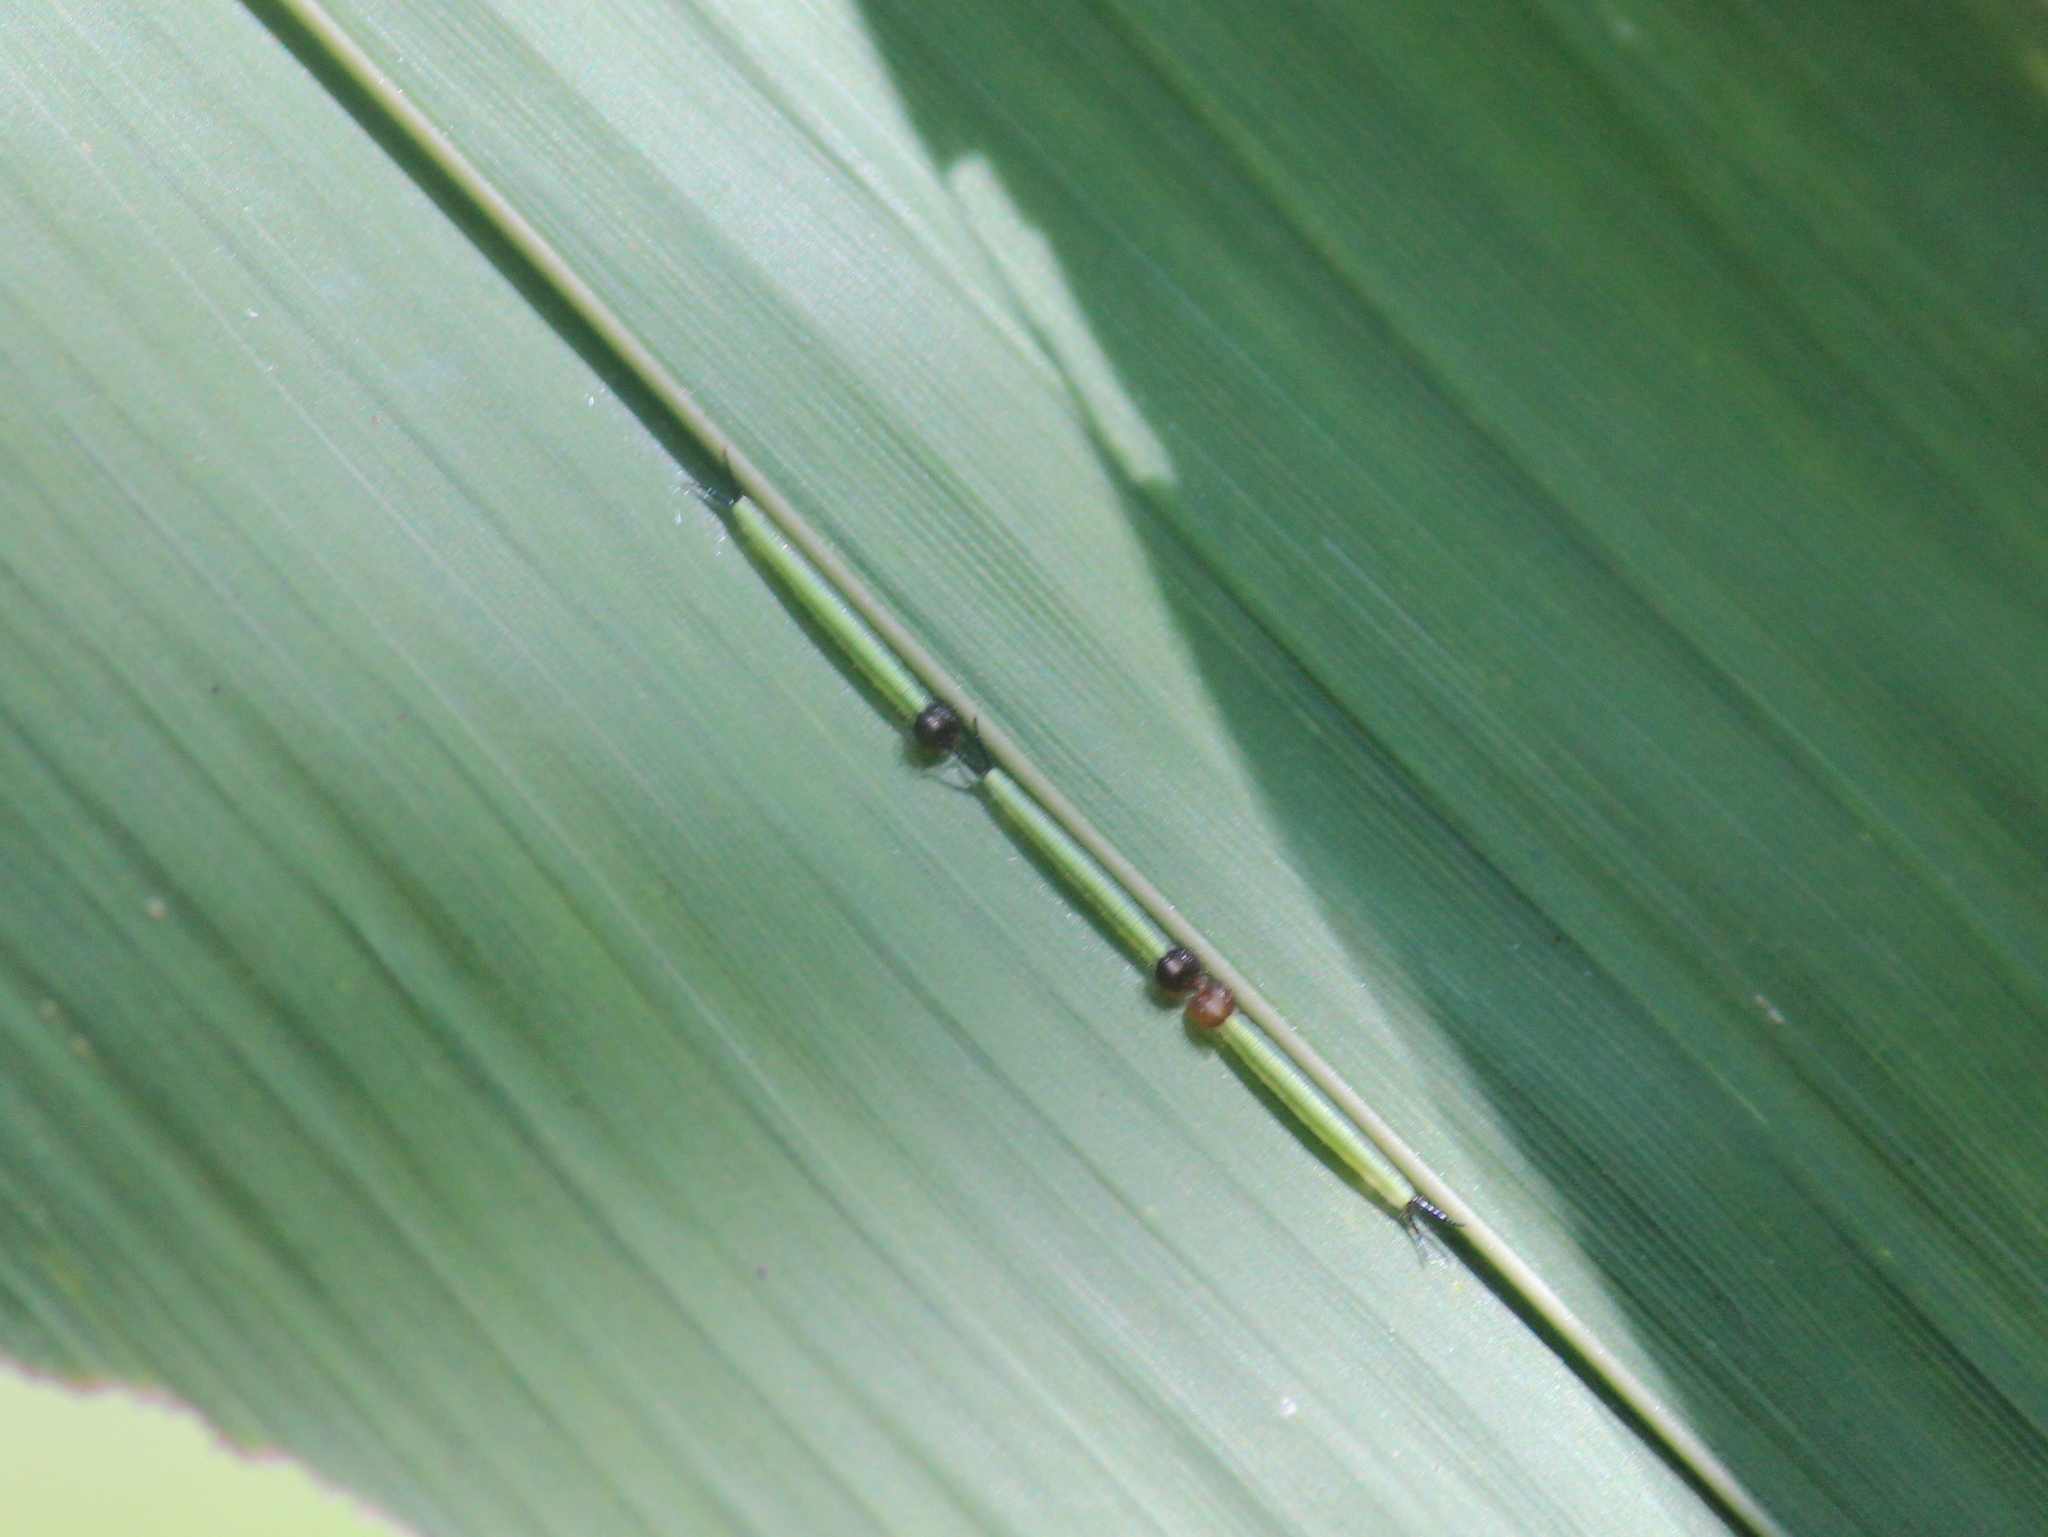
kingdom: Animalia
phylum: Arthropoda
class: Insecta
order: Lepidoptera
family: Nymphalidae
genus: Parantirrhoea
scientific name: Parantirrhoea marshalli
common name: Travancore evening brown
